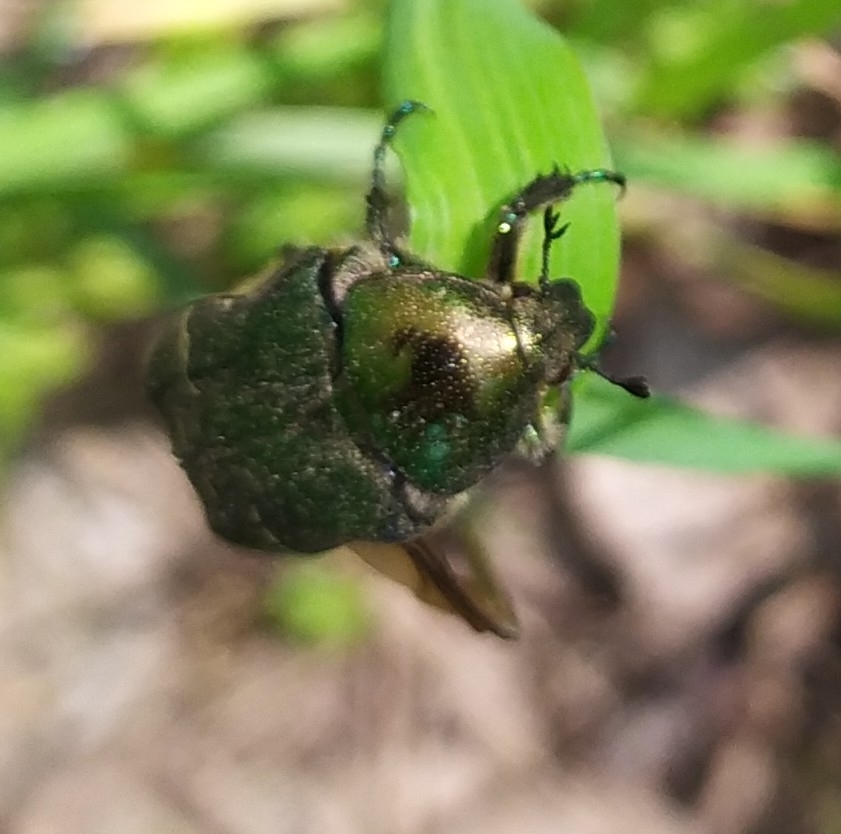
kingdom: Animalia
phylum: Arthropoda
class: Insecta
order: Coleoptera
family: Scarabaeidae
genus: Cetonia
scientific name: Cetonia aurata
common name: Rose chafer
